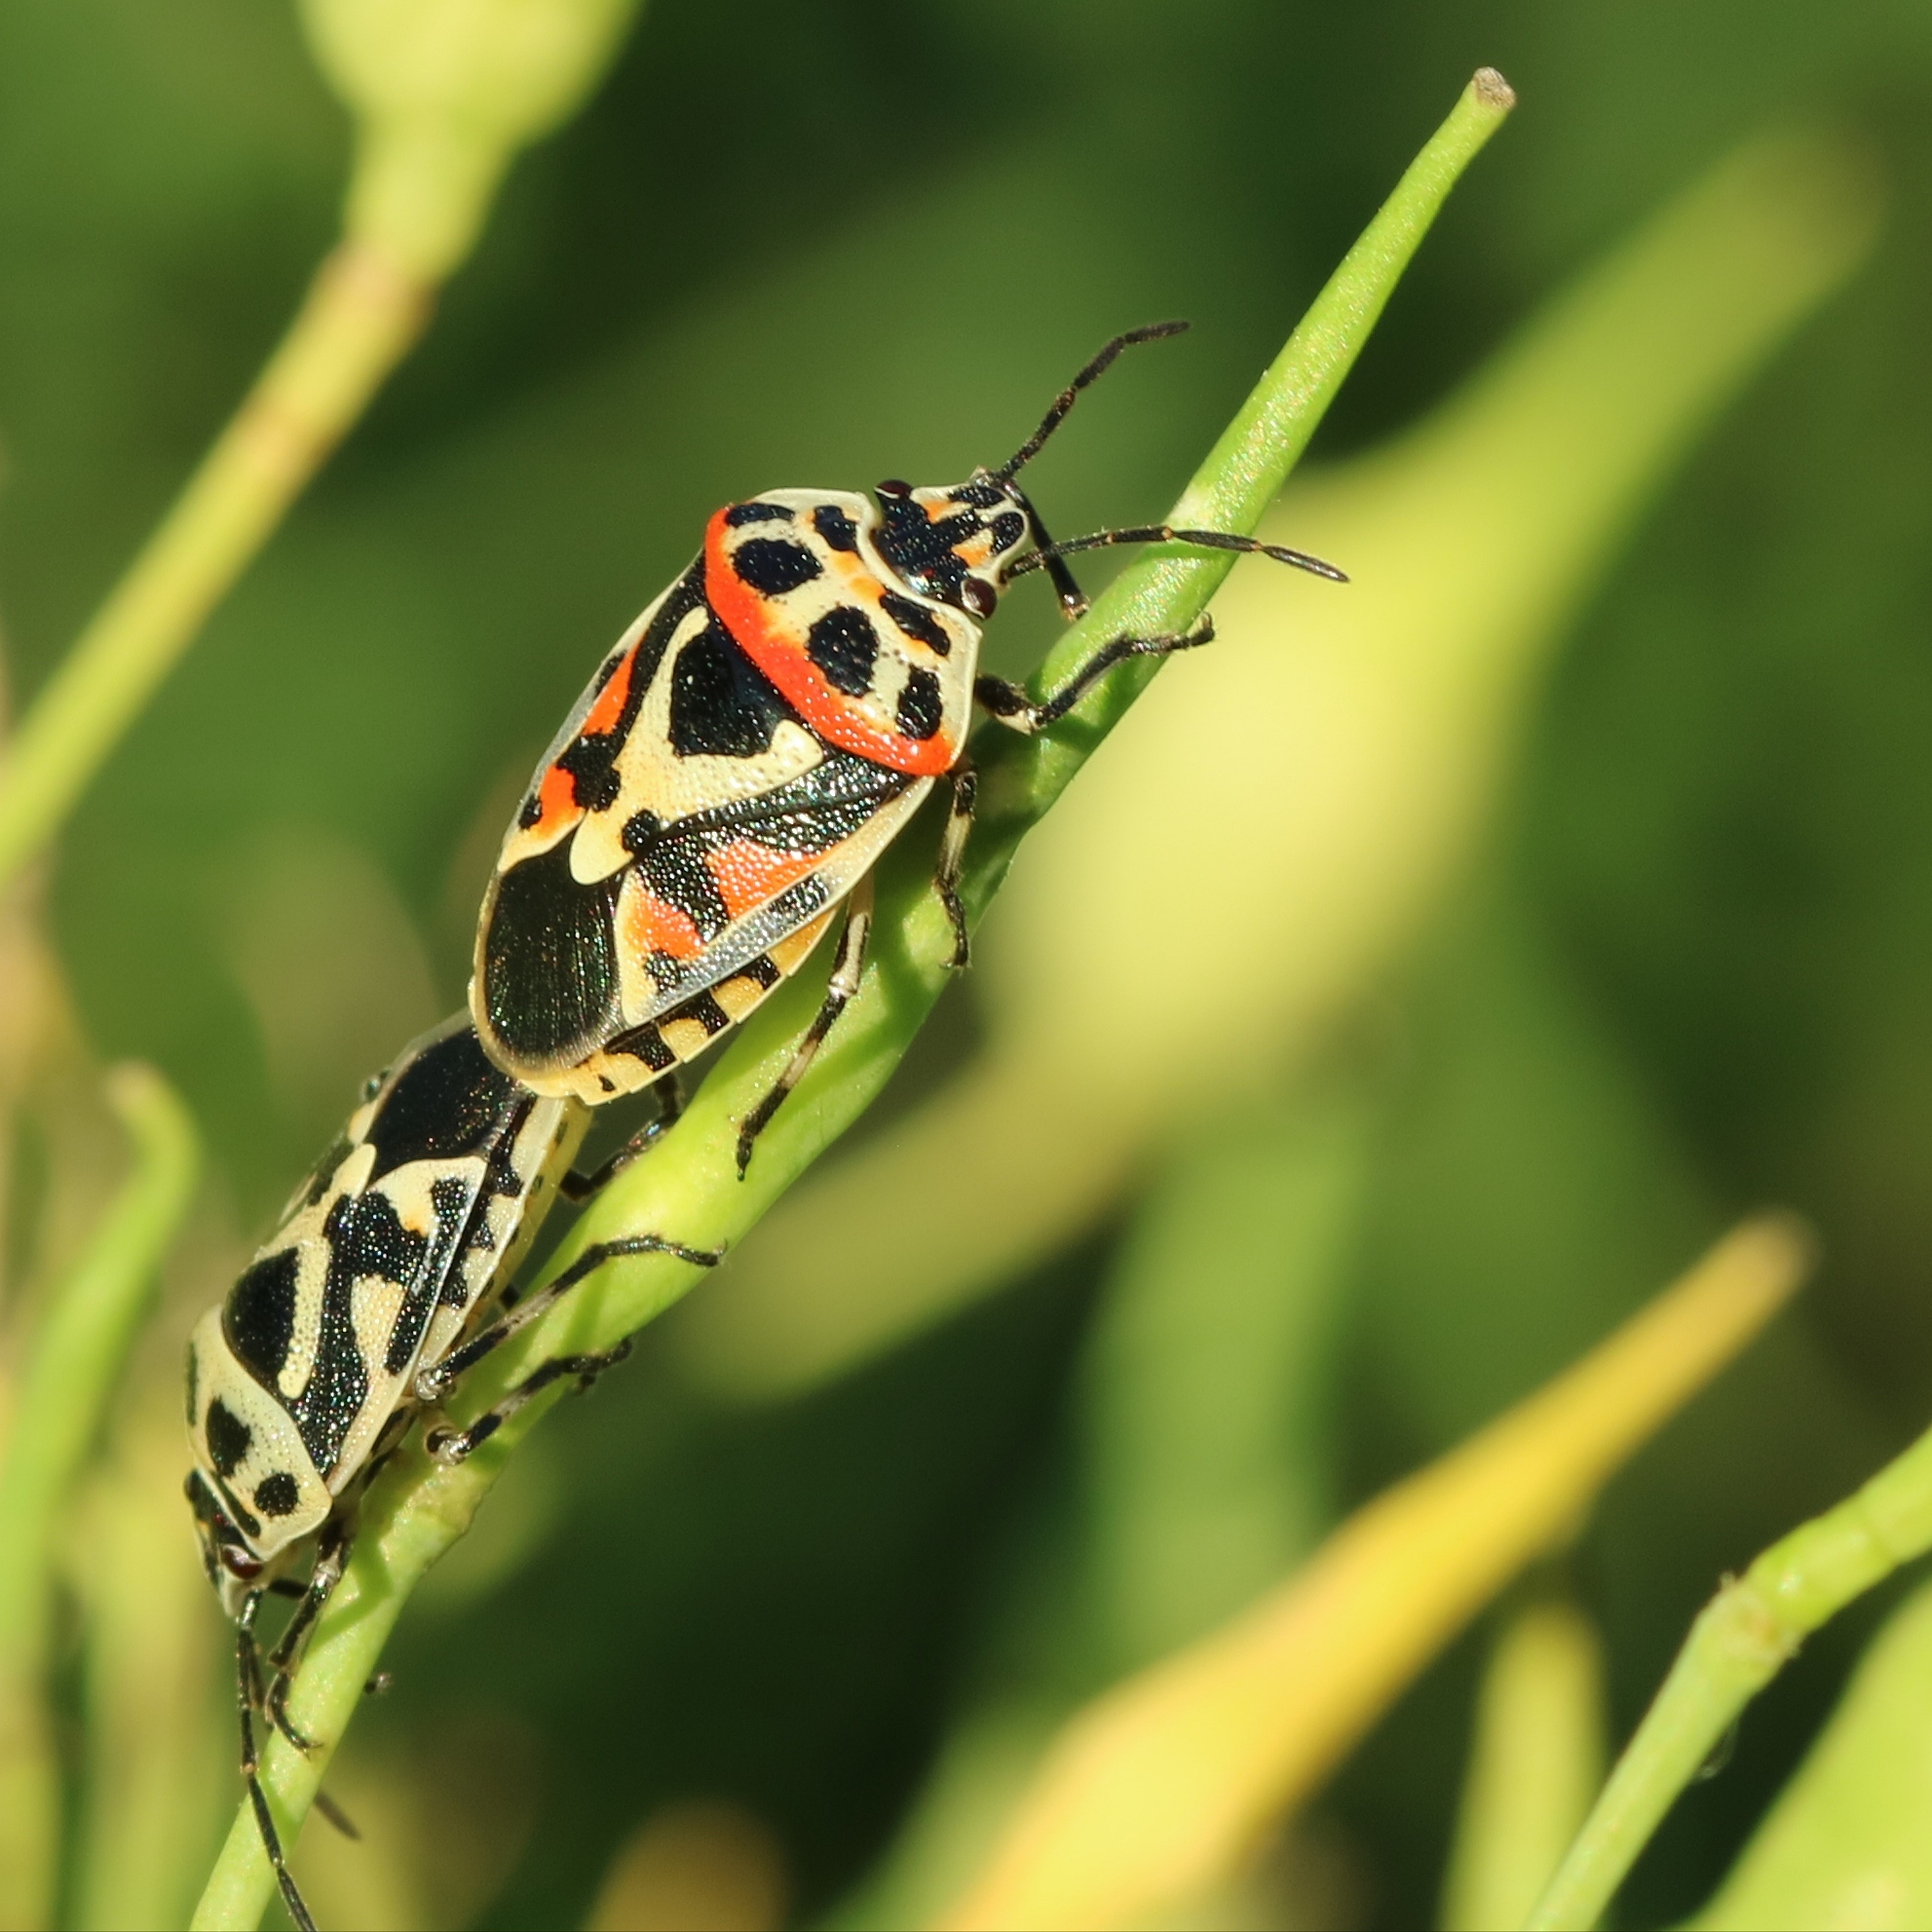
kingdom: Animalia
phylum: Arthropoda
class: Insecta
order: Hemiptera
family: Pentatomidae
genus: Eurydema
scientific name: Eurydema ornata
